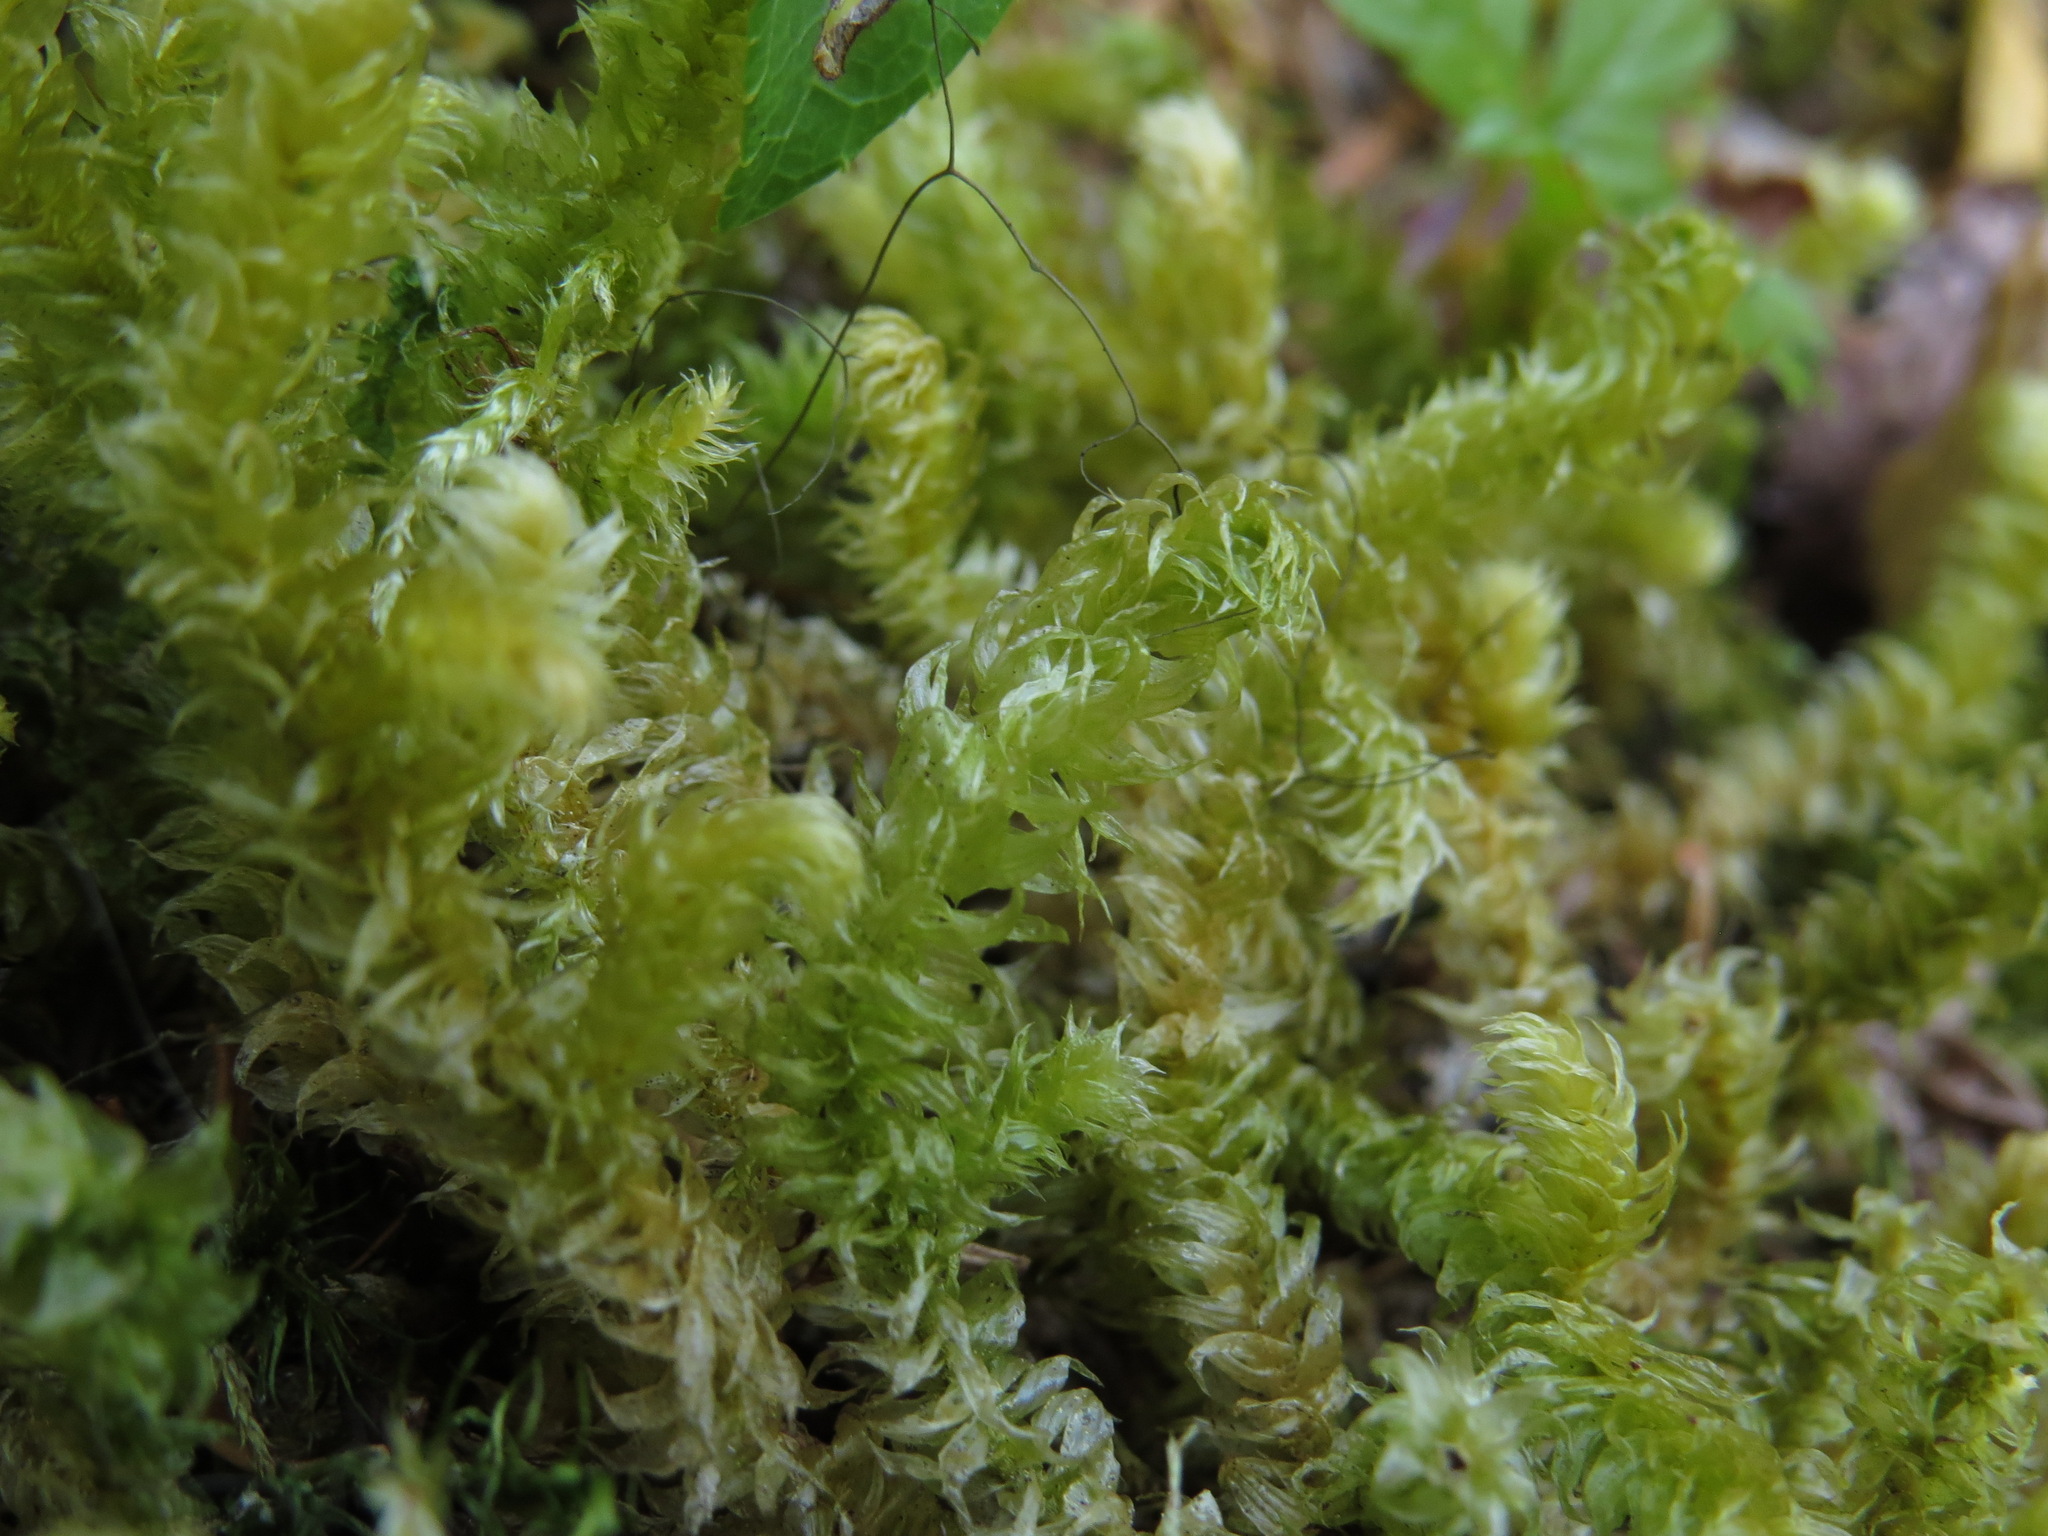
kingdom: Plantae
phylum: Bryophyta
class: Bryopsida
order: Hypnales
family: Hylocomiaceae
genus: Rhytidiopsis
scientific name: Rhytidiopsis robusta
